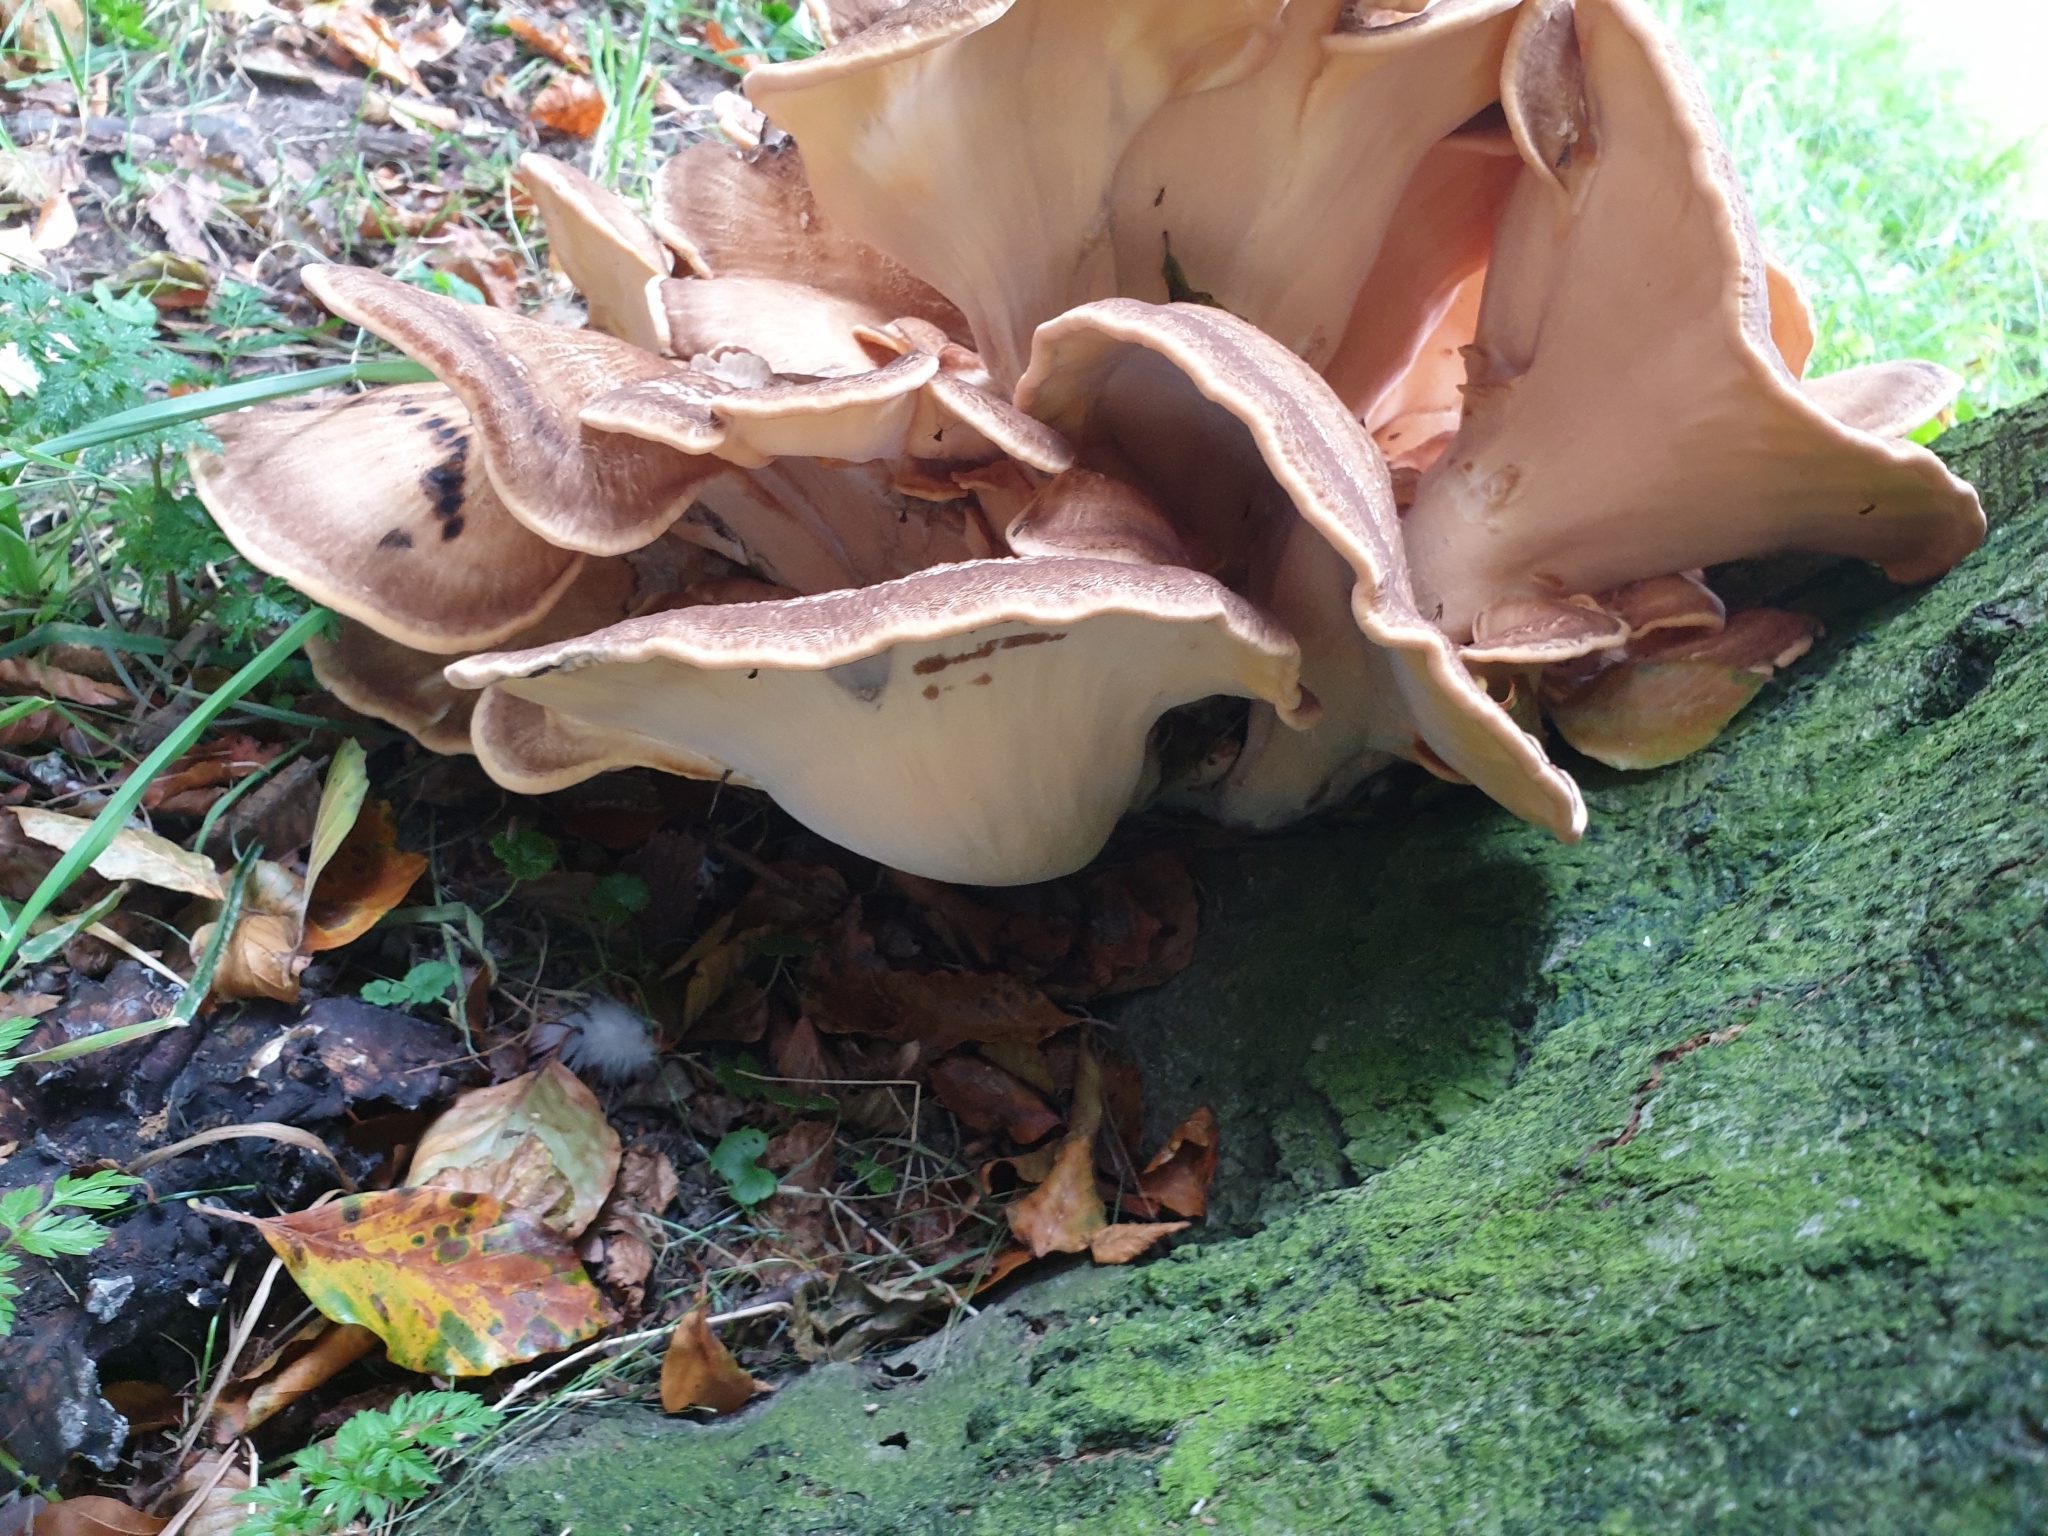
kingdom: Fungi
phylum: Basidiomycota
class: Agaricomycetes
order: Polyporales
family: Meripilaceae
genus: Meripilus
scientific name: Meripilus giganteus
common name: Giant polypore
